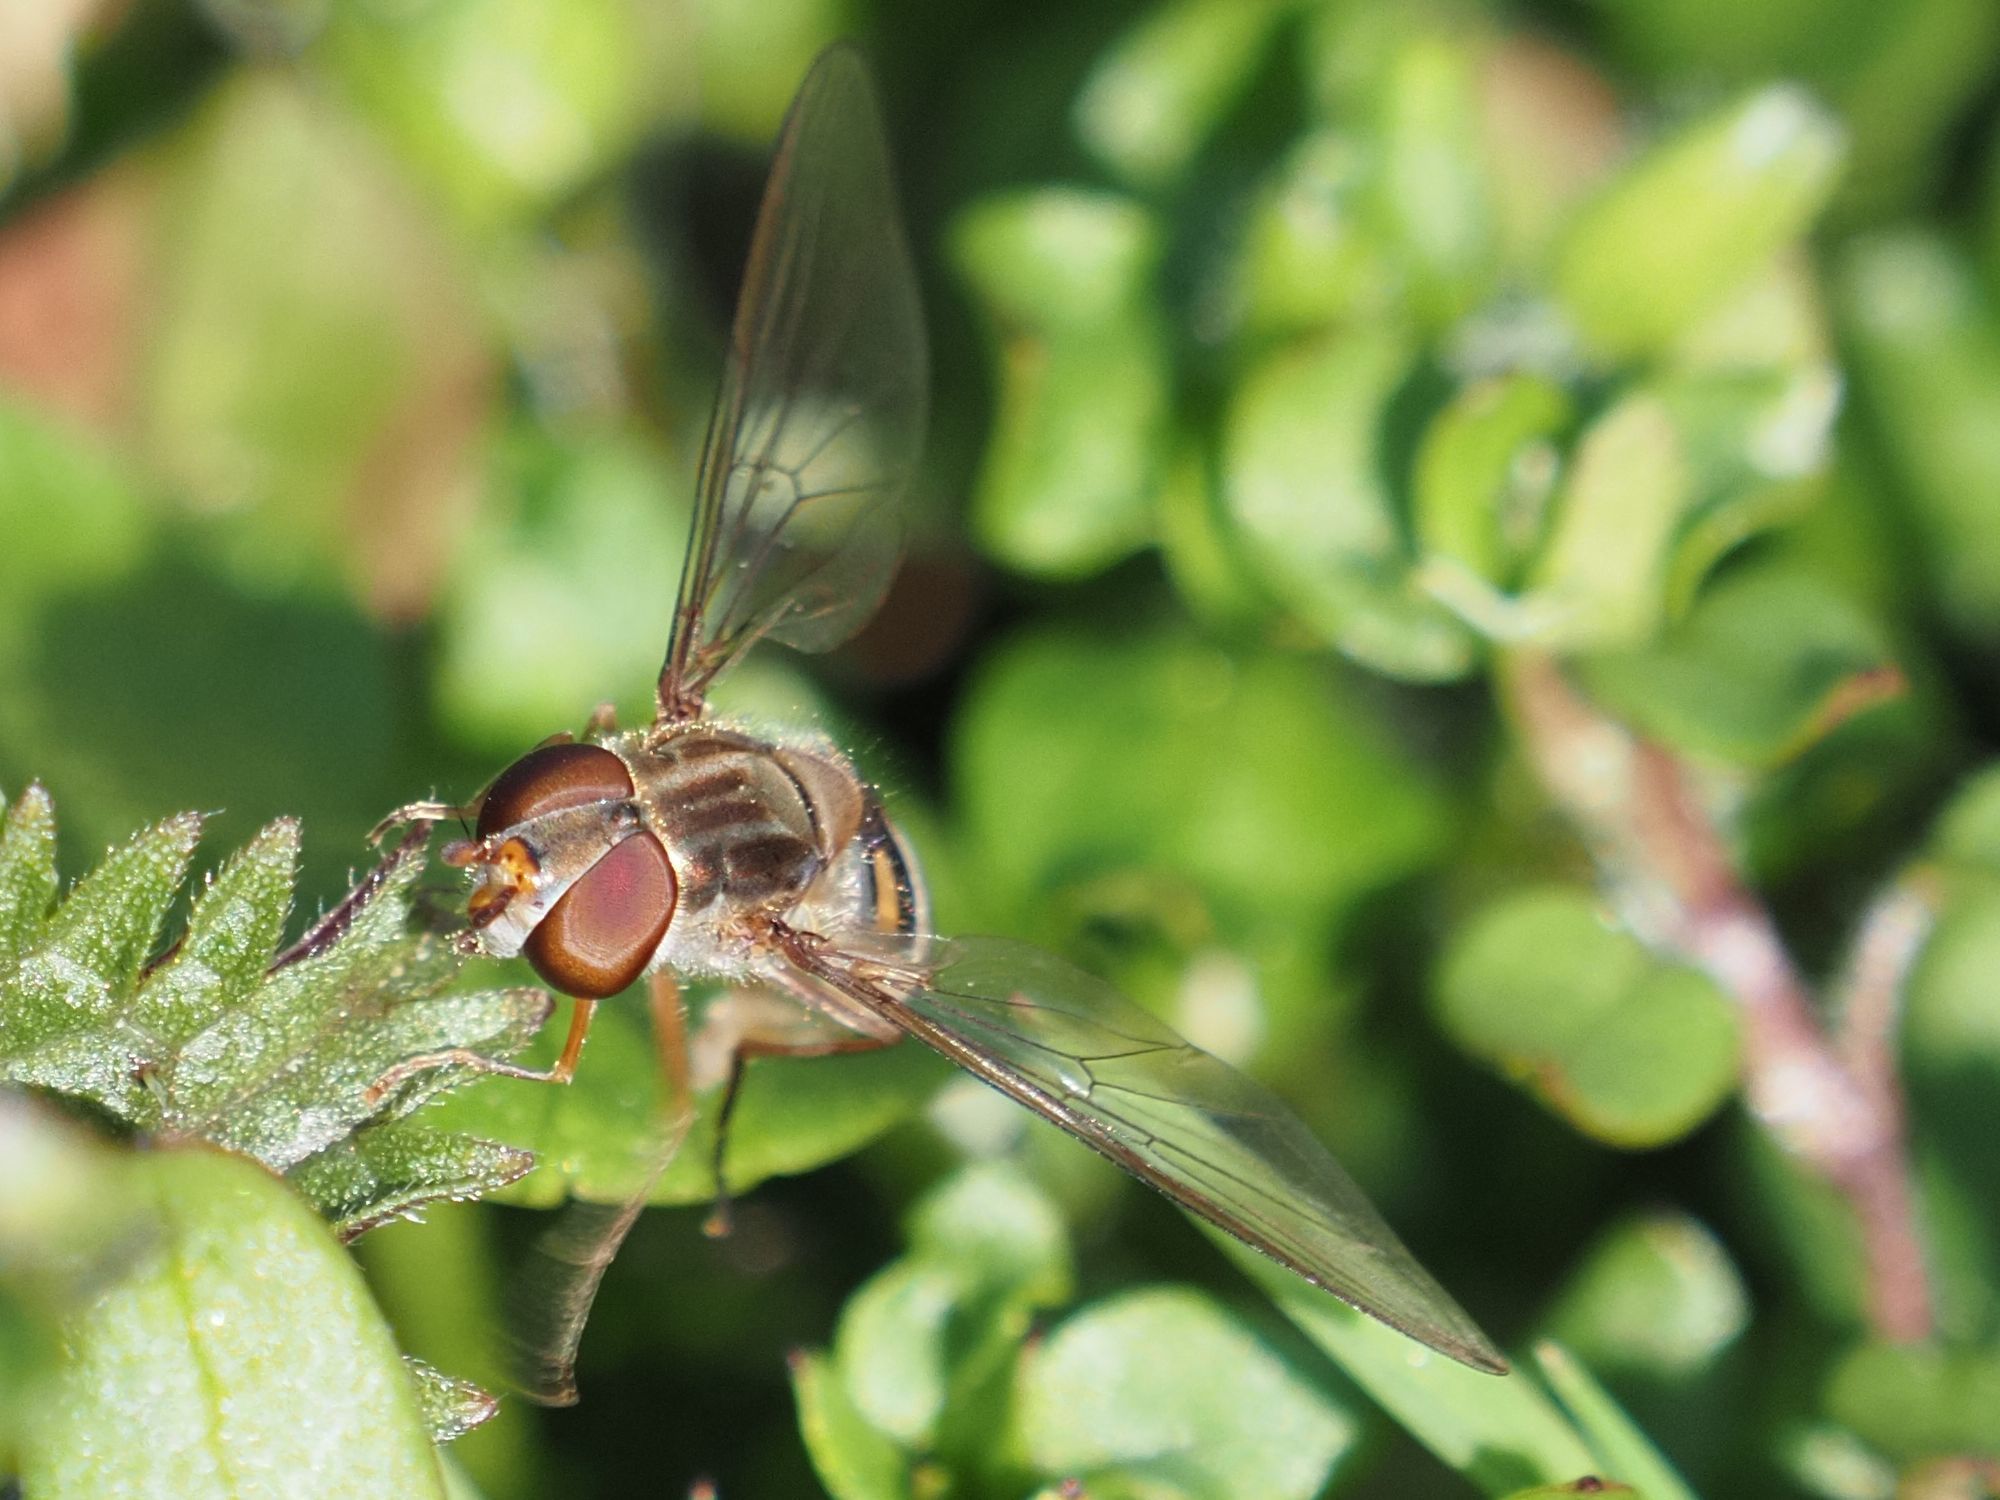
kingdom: Animalia
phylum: Arthropoda
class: Insecta
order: Diptera
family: Syrphidae
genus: Episyrphus
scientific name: Episyrphus balteatus
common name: Marmalade hoverfly
